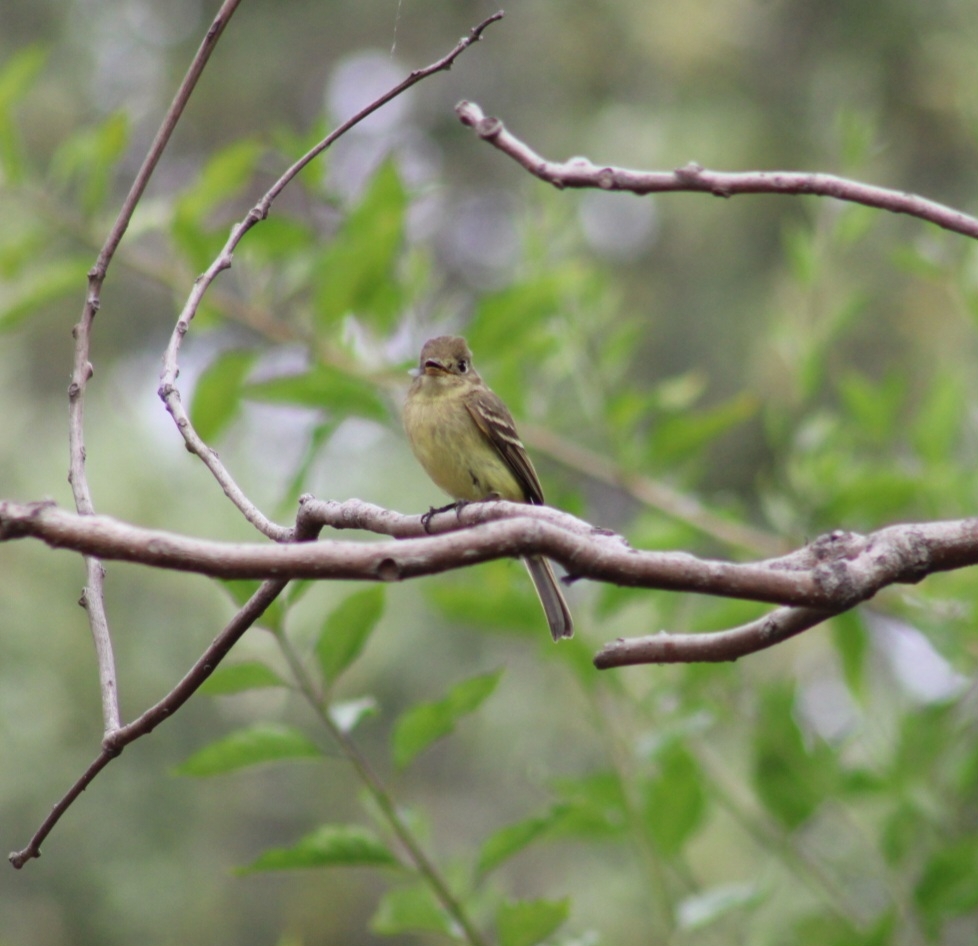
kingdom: Animalia
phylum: Chordata
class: Aves
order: Passeriformes
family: Tyrannidae
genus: Empidonax
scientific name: Empidonax difficilis
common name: Pacific-slope flycatcher
